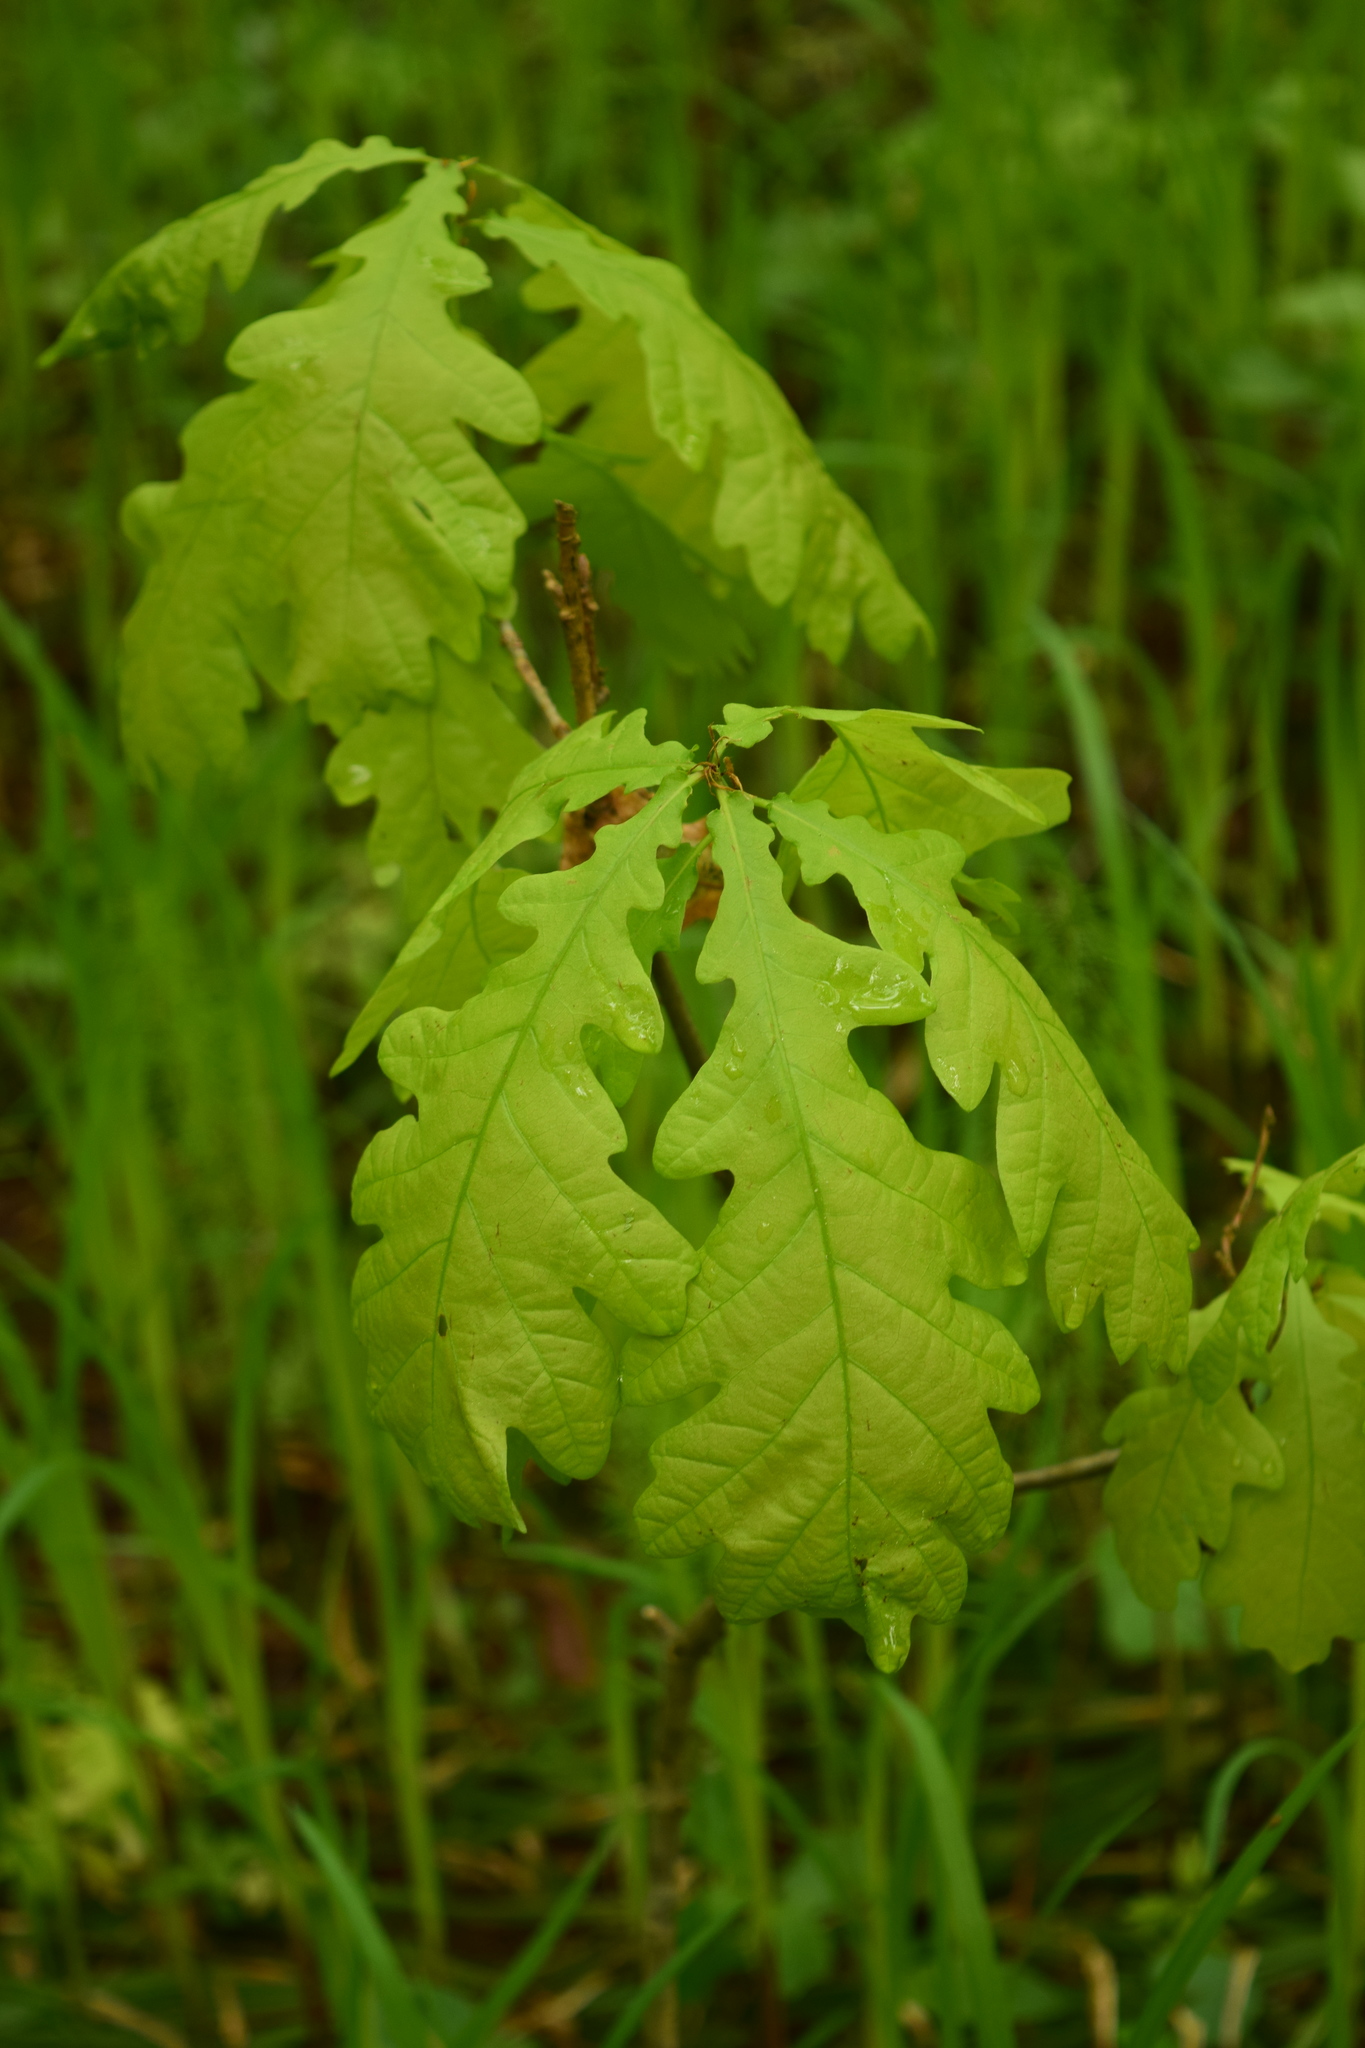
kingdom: Plantae
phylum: Tracheophyta
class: Magnoliopsida
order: Fagales
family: Fagaceae
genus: Quercus
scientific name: Quercus robur
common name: Pedunculate oak
